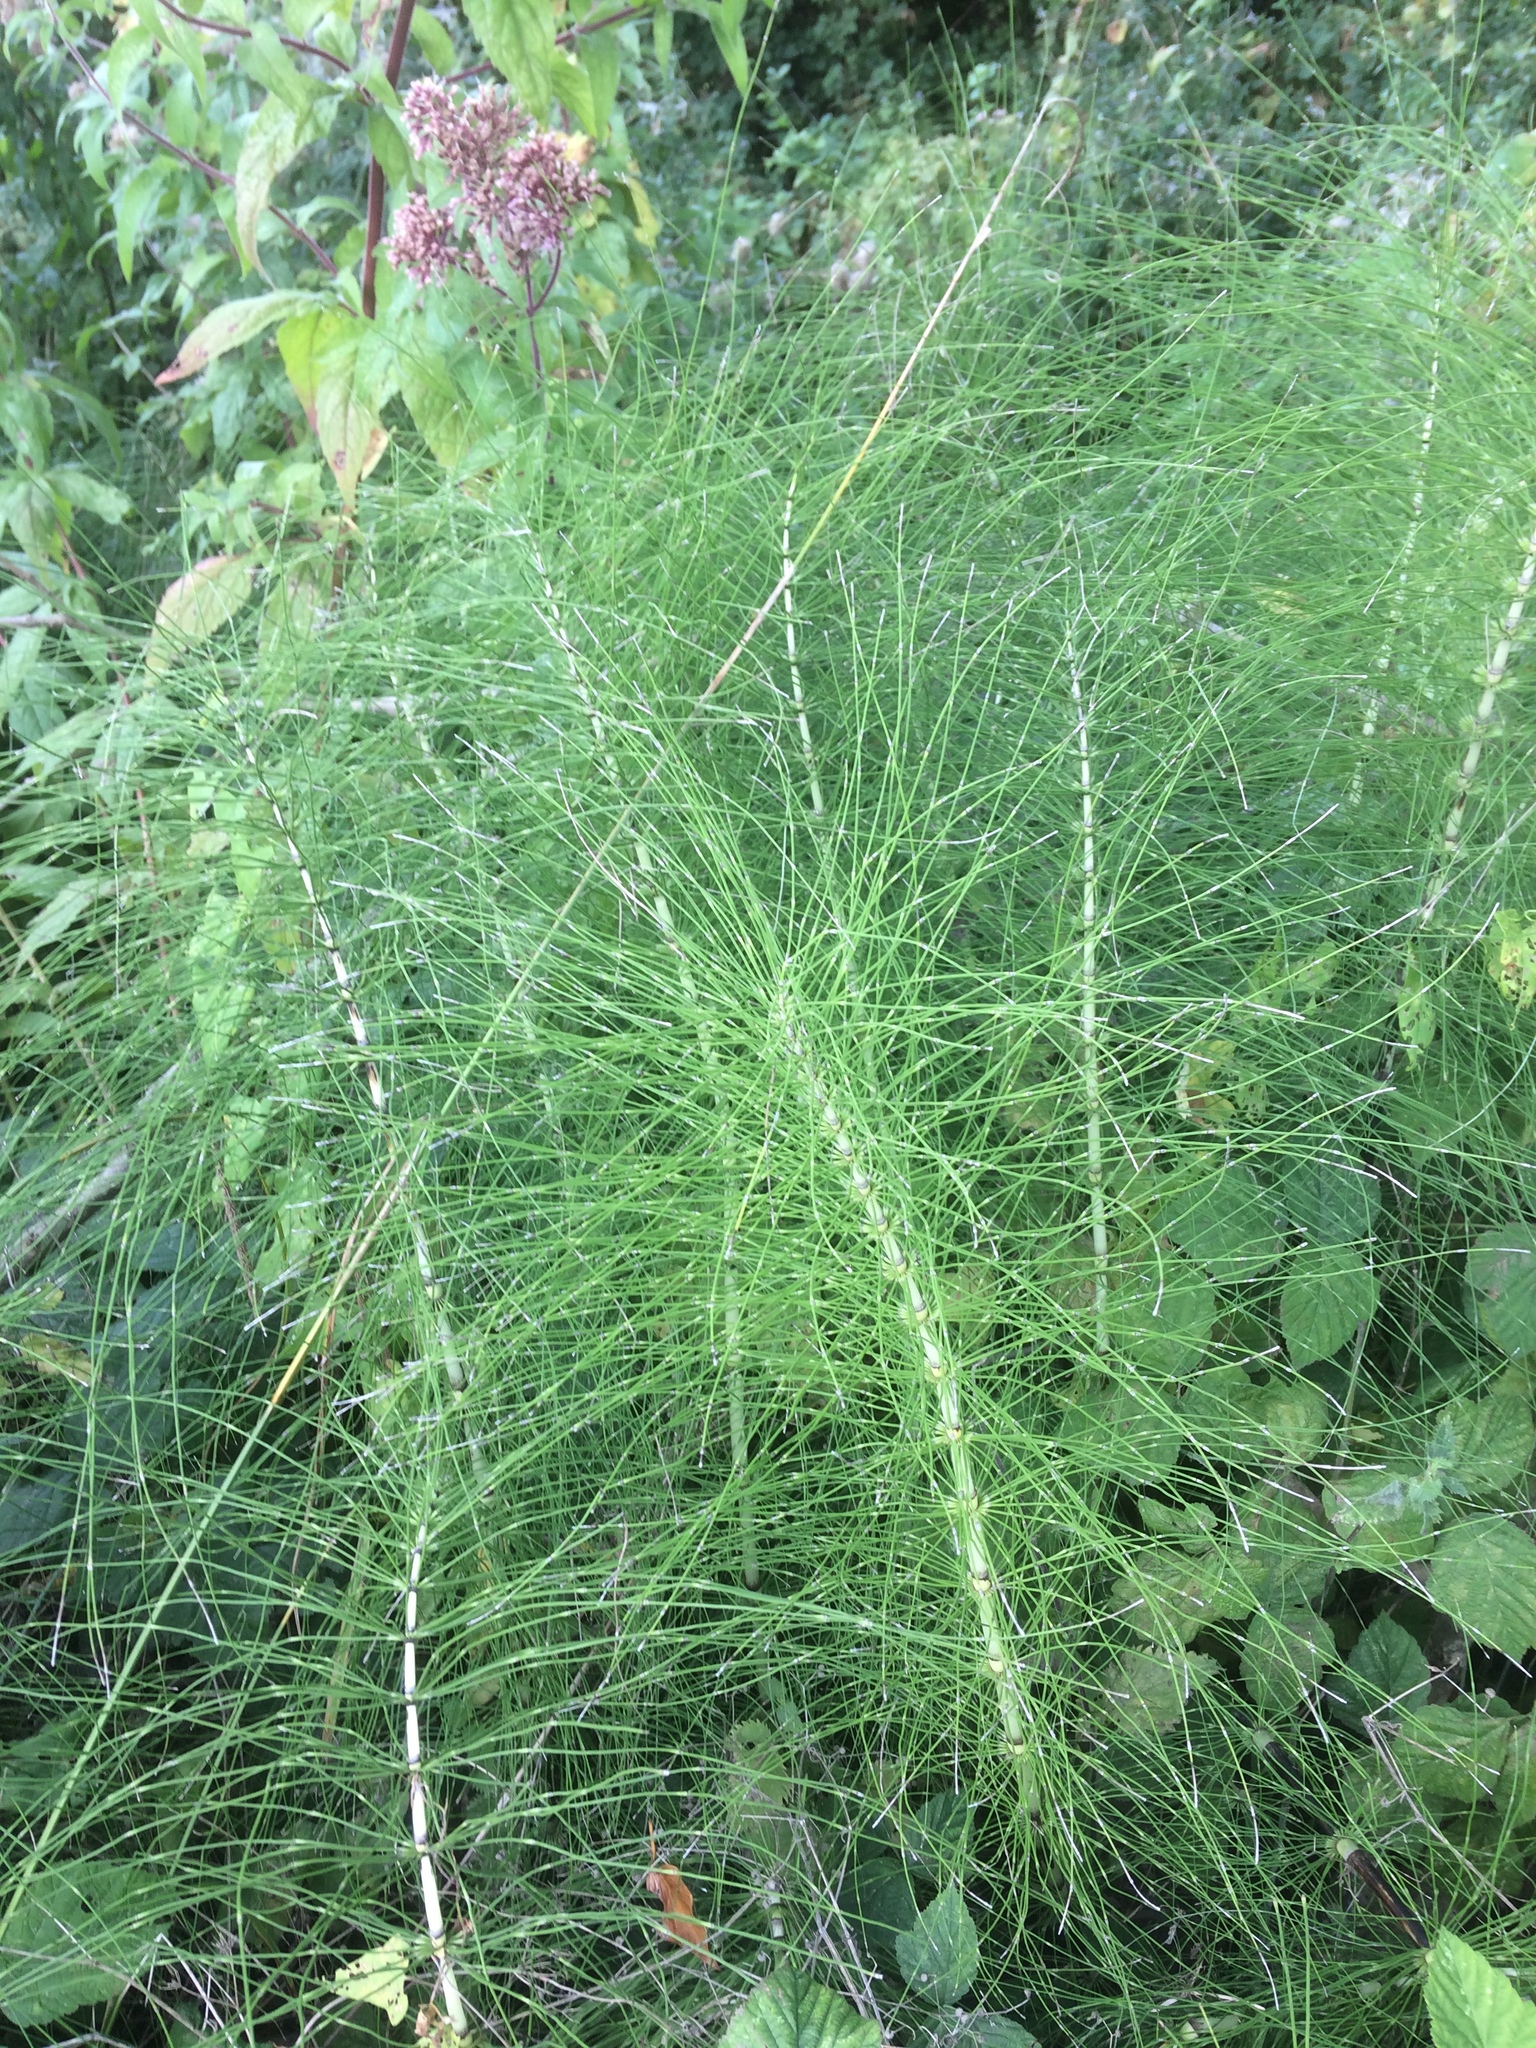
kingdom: Plantae
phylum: Tracheophyta
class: Polypodiopsida
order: Equisetales
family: Equisetaceae
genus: Equisetum
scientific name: Equisetum telmateia
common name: Great horsetail
